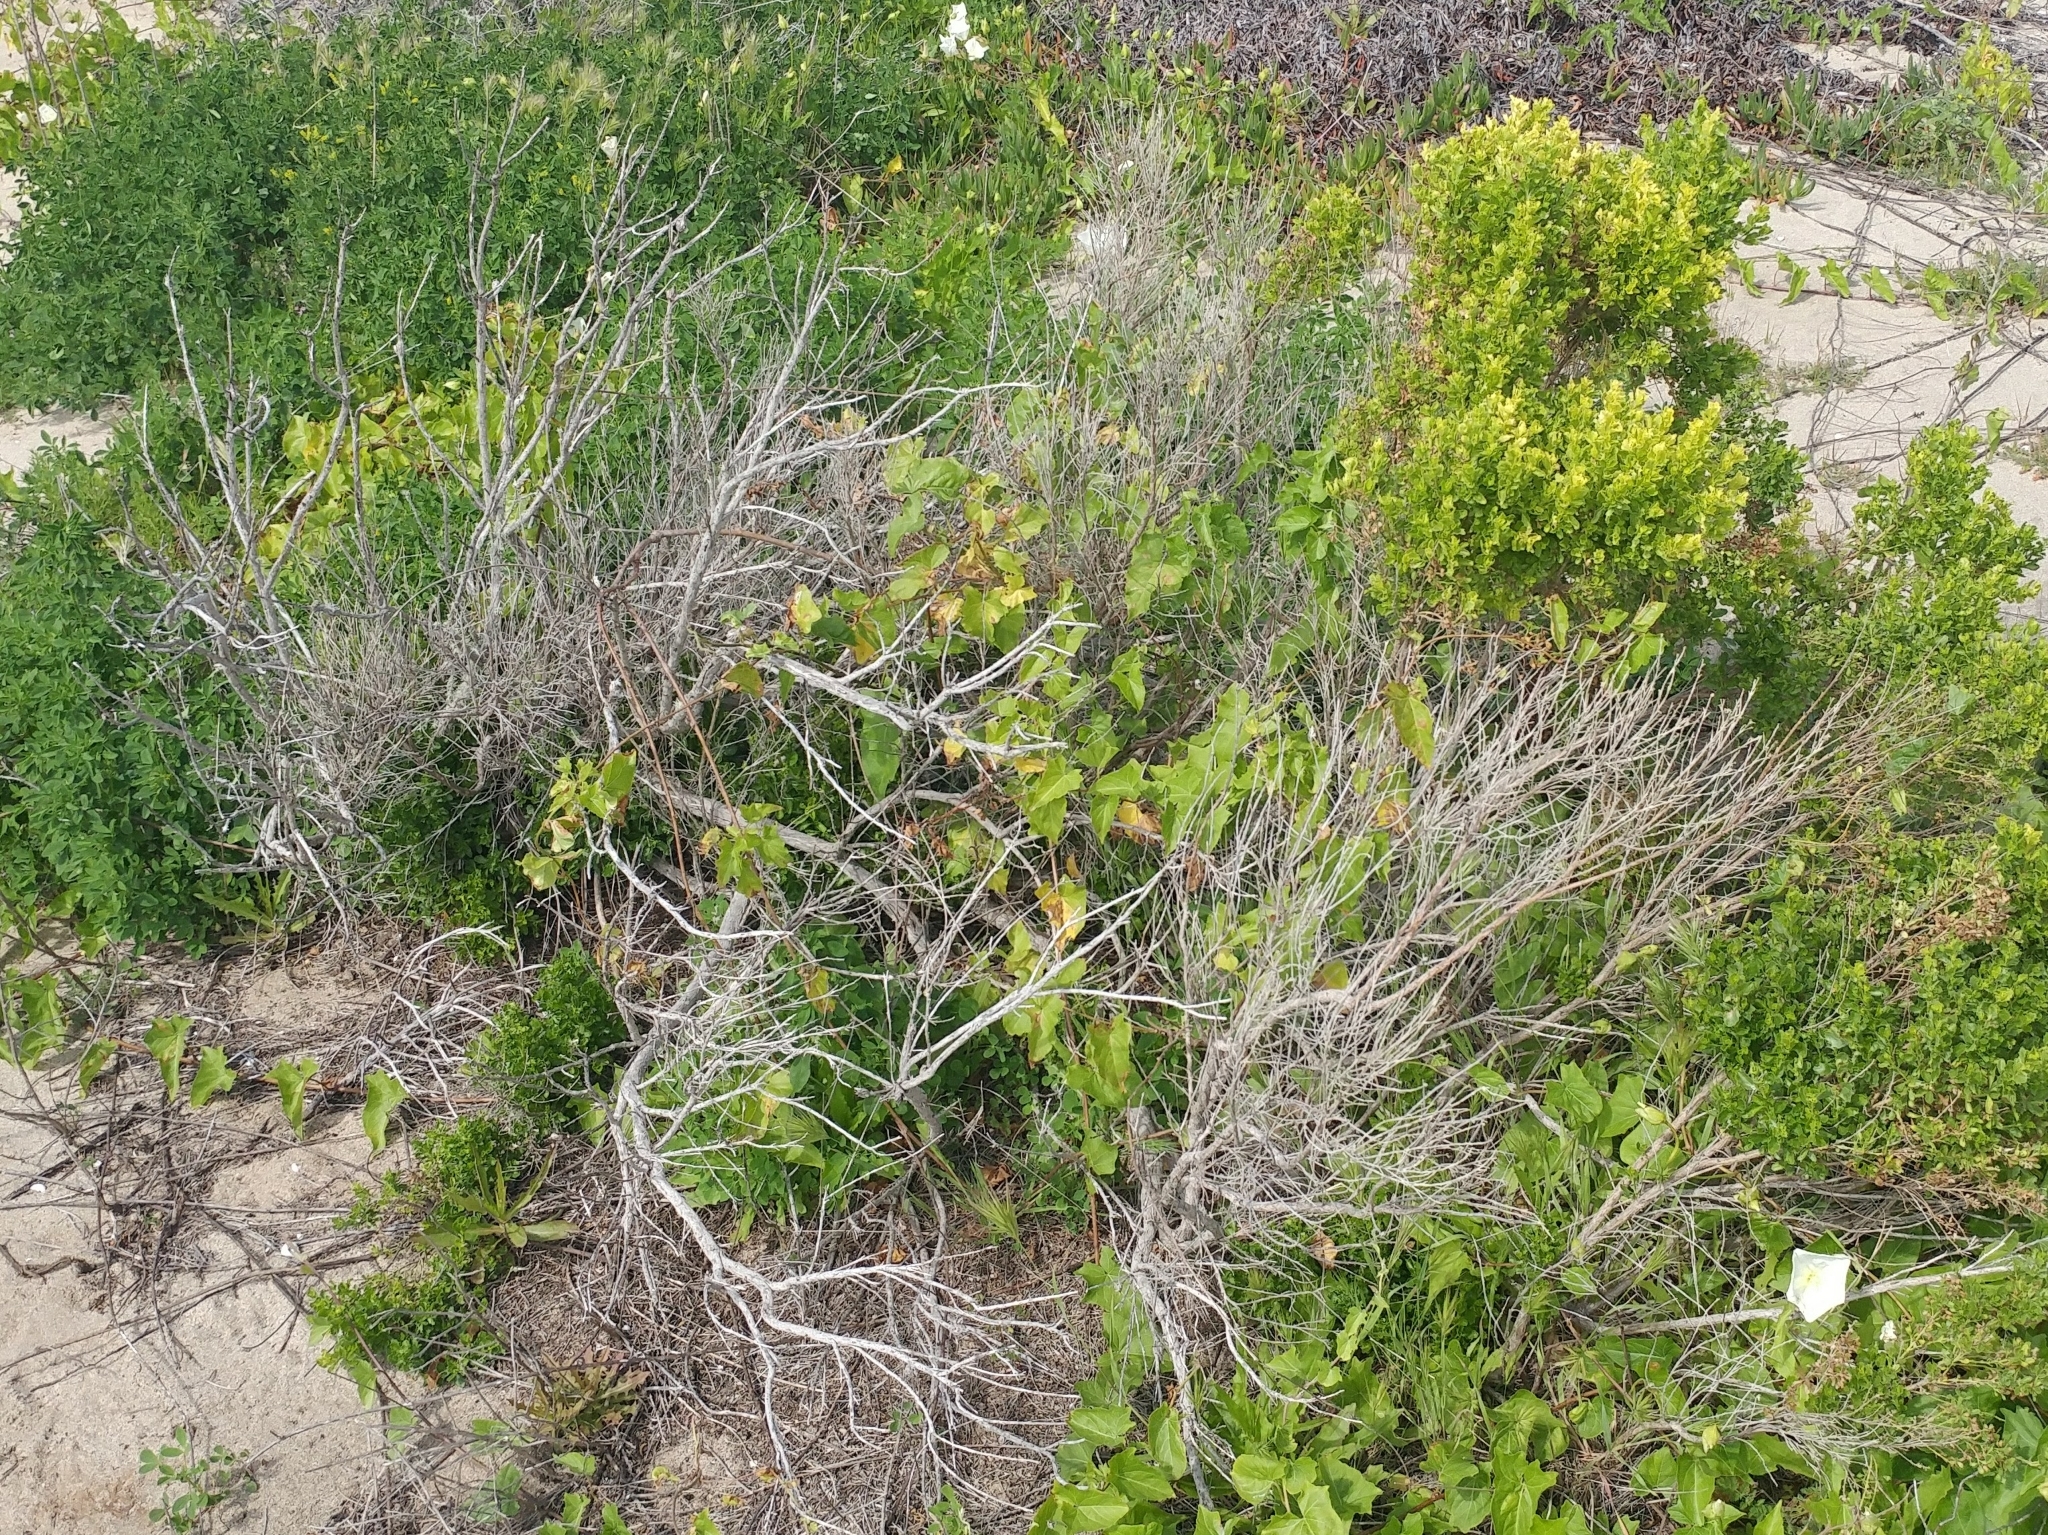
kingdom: Plantae
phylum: Tracheophyta
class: Magnoliopsida
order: Asterales
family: Asteraceae
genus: Baccharis
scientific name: Baccharis pilularis
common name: Coyotebrush
